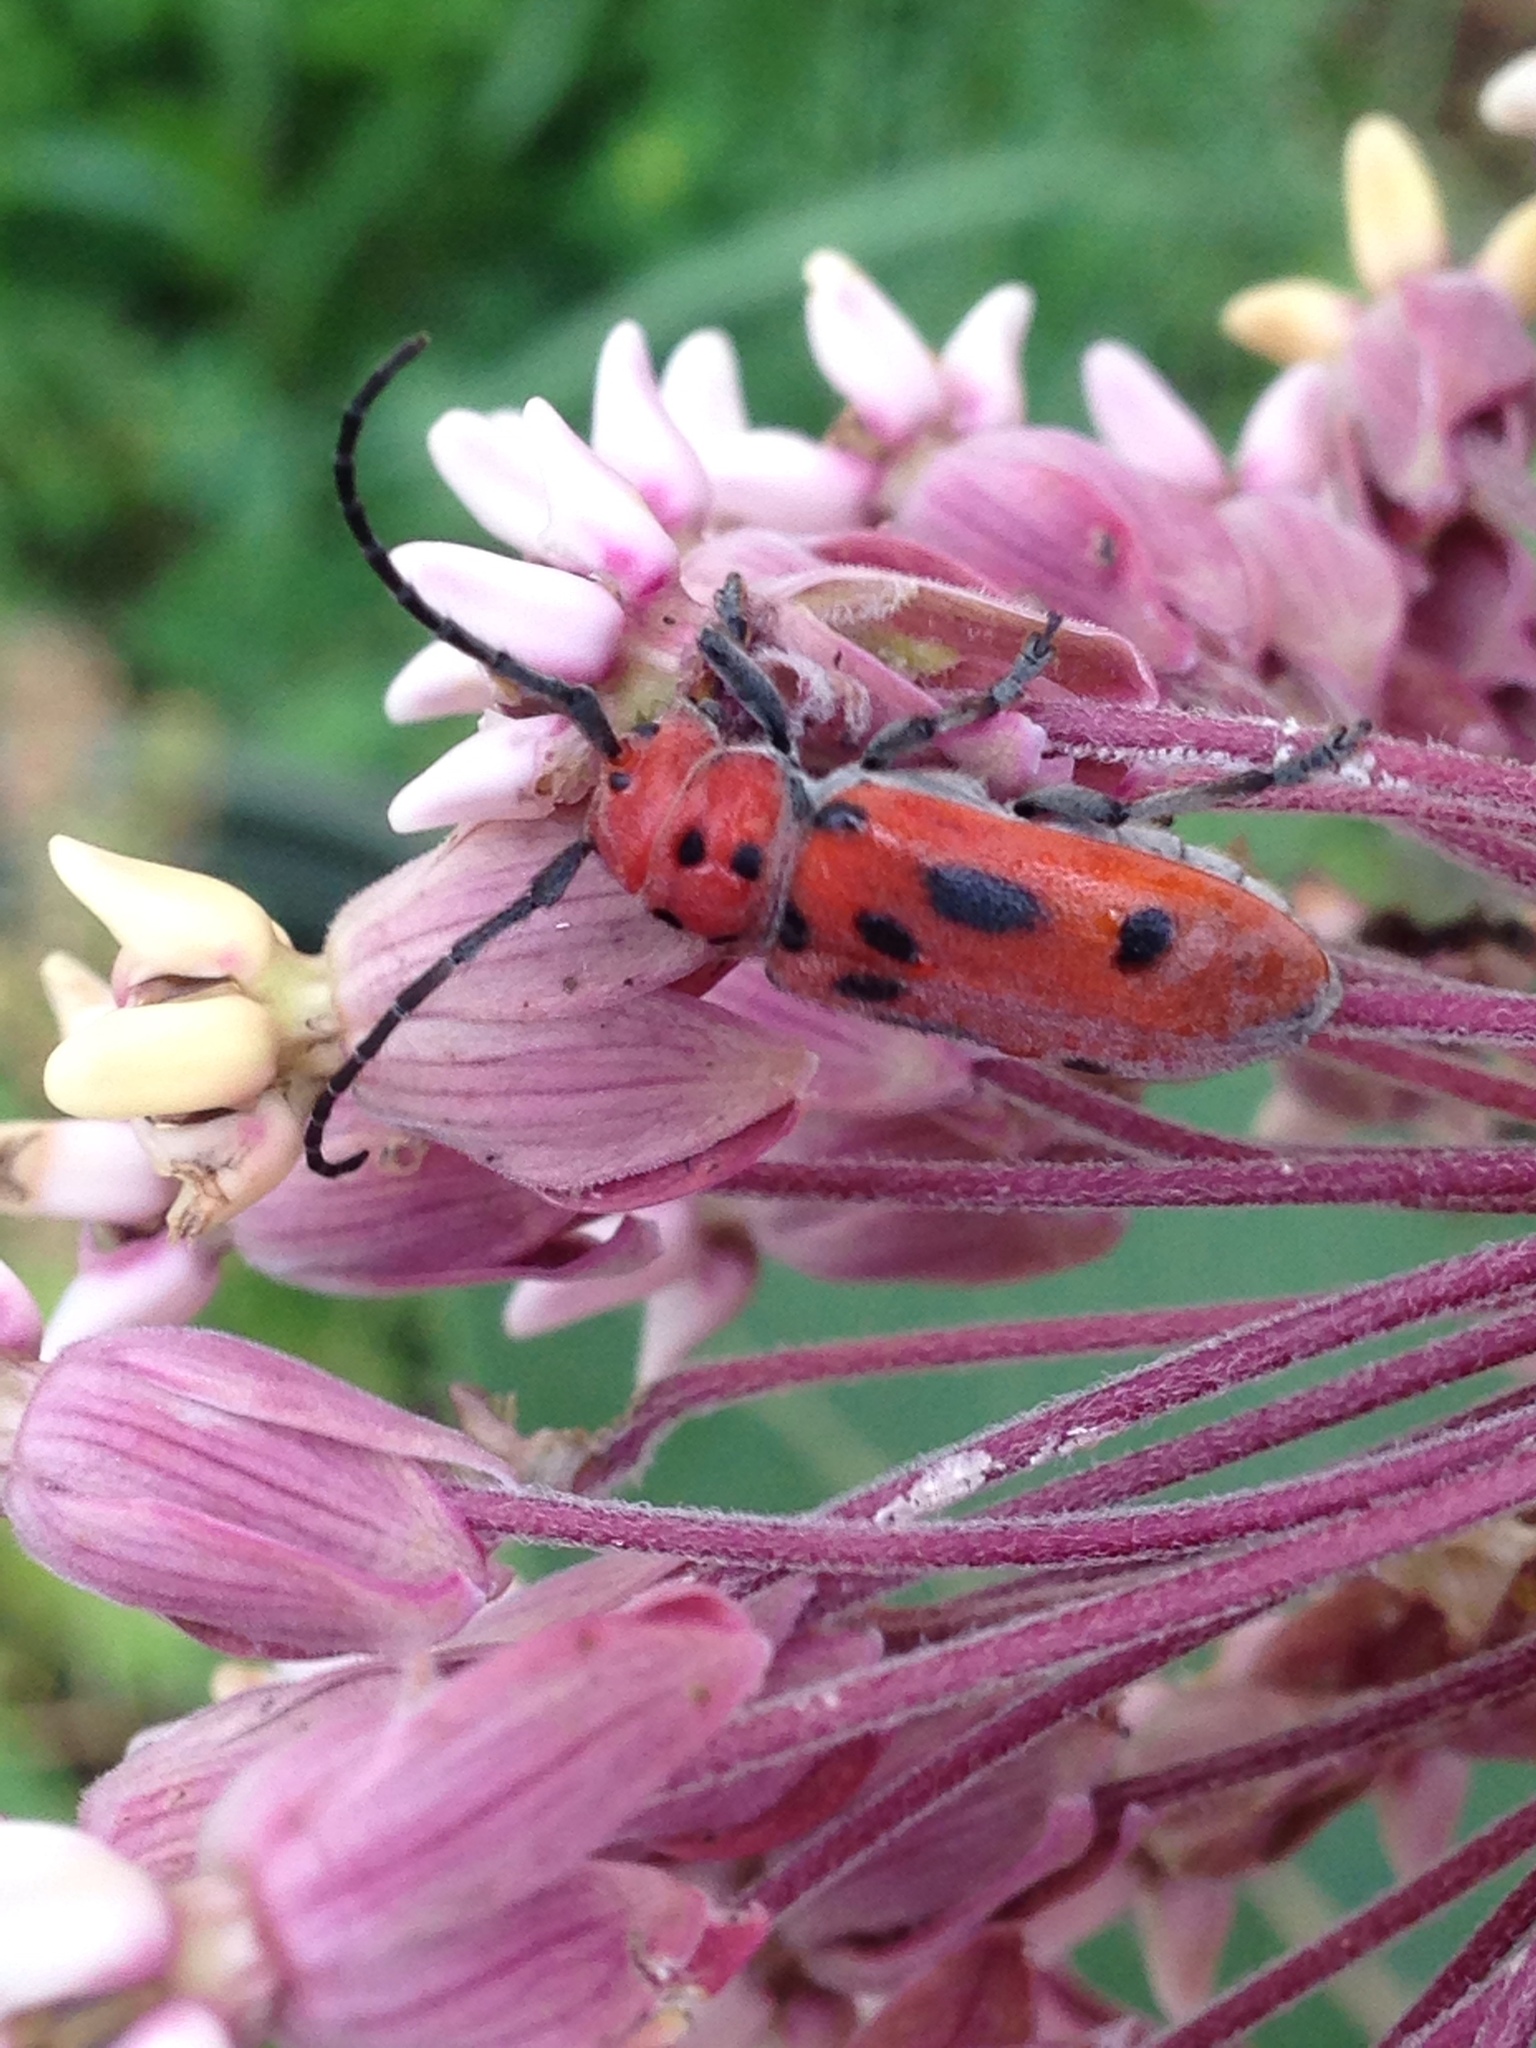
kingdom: Animalia
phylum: Arthropoda
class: Insecta
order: Coleoptera
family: Cerambycidae
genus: Tetraopes
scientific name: Tetraopes tetrophthalmus
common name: Red milkweed beetle
